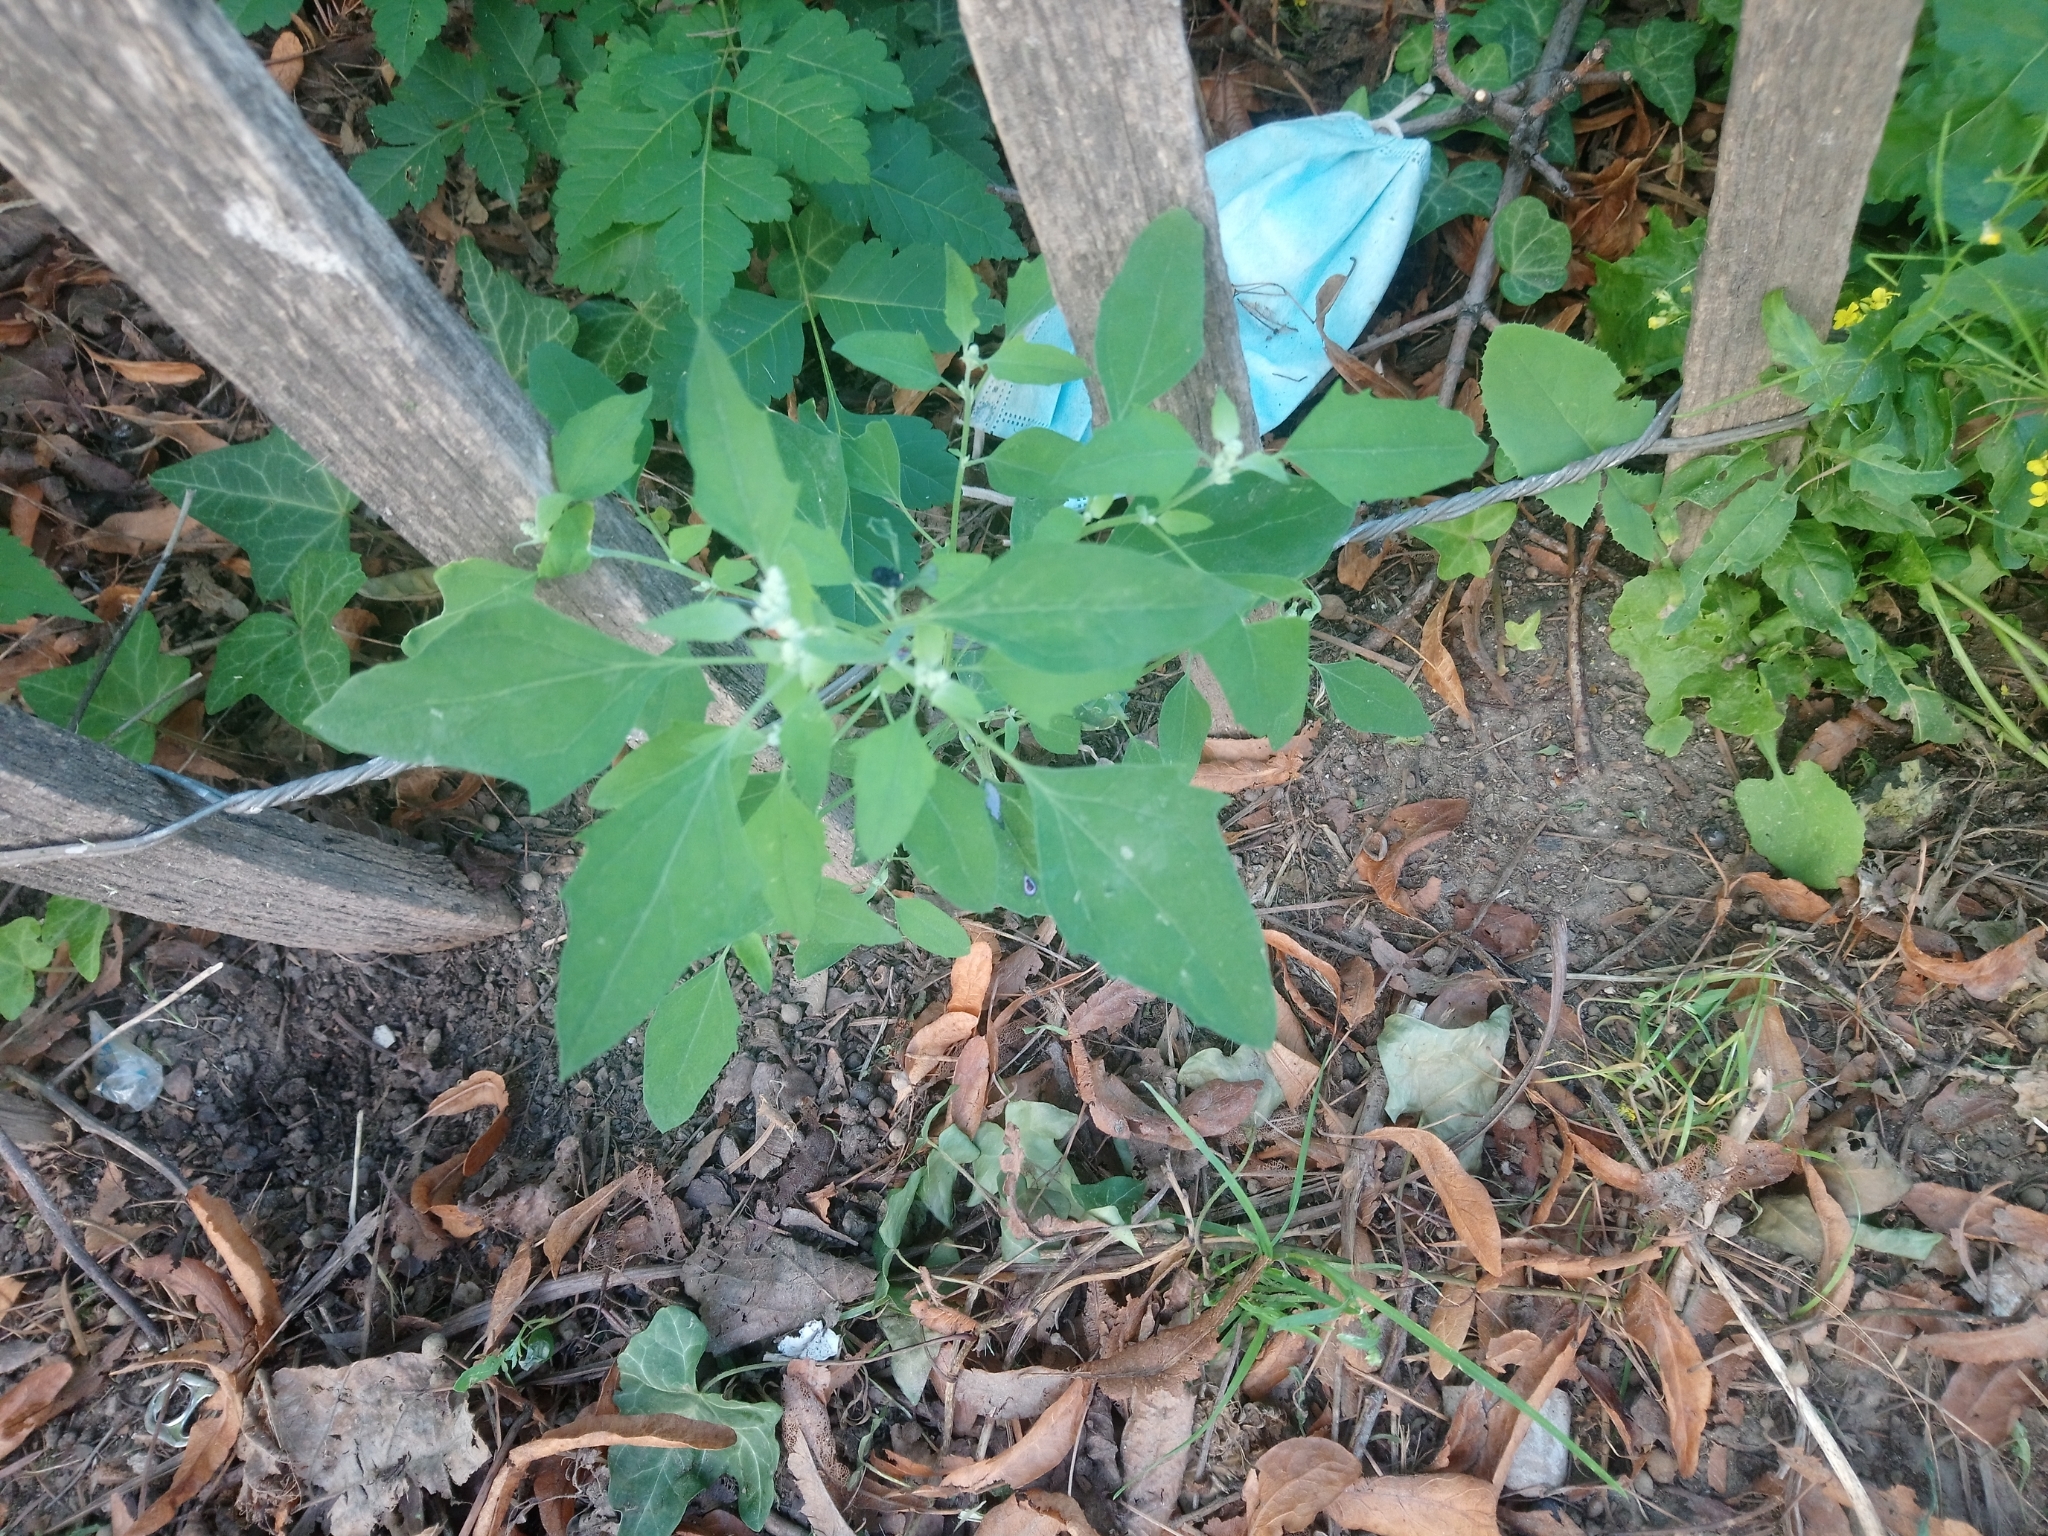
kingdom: Plantae
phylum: Tracheophyta
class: Magnoliopsida
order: Caryophyllales
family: Amaranthaceae
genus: Chenopodium
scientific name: Chenopodium album
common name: Fat-hen
